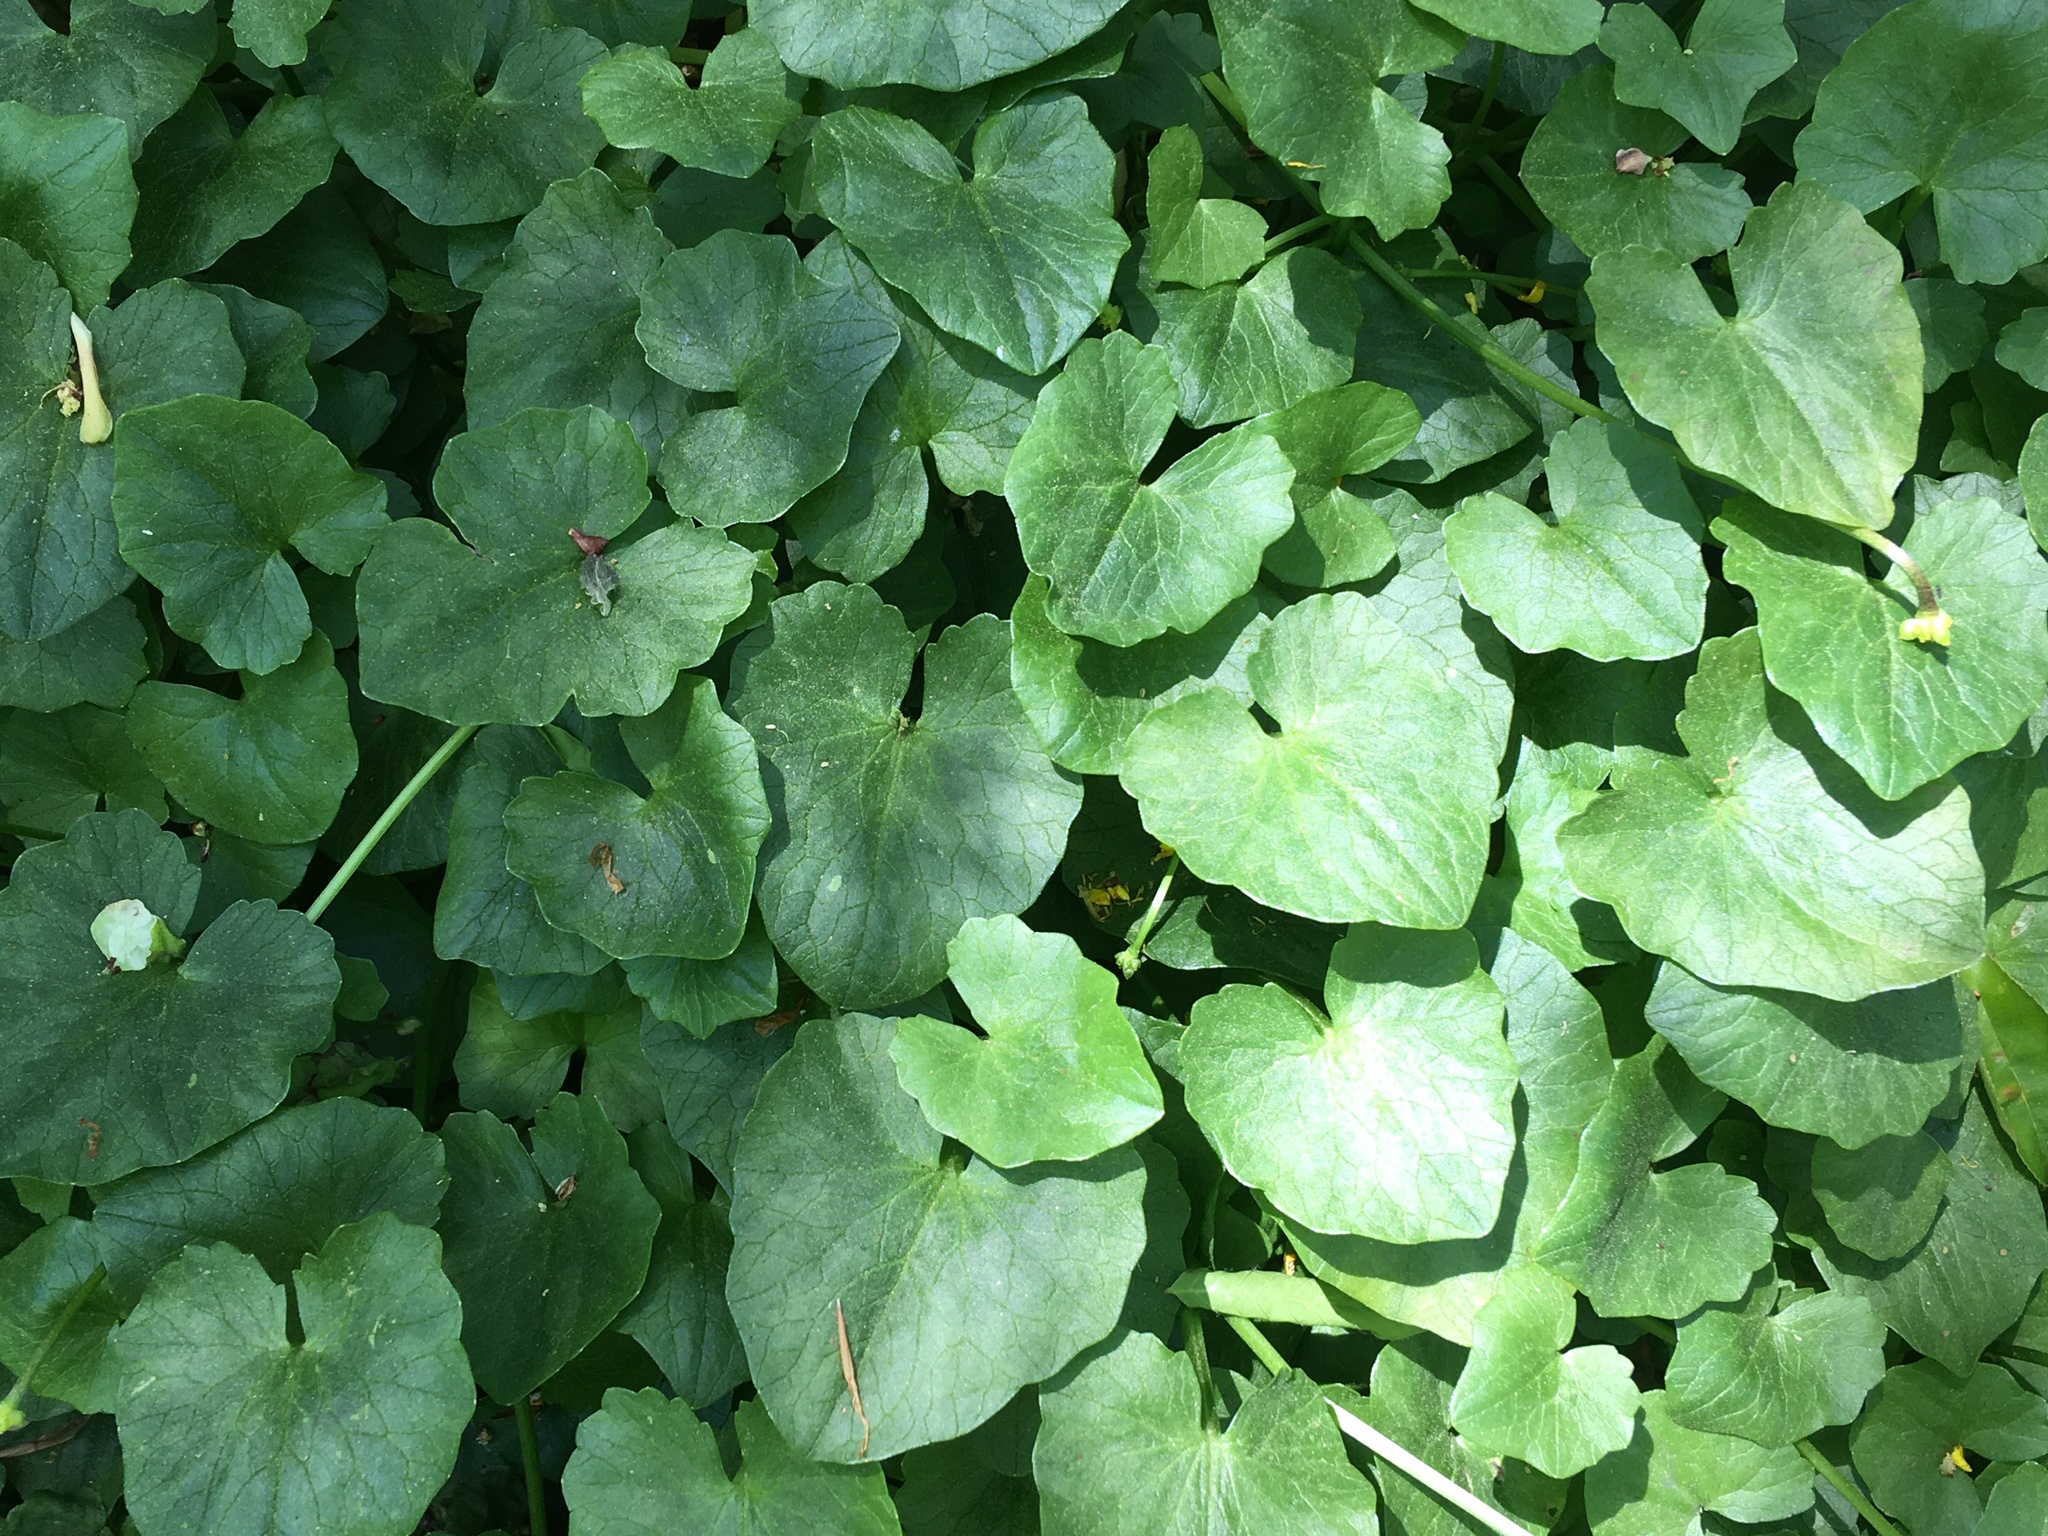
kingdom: Plantae
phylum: Tracheophyta
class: Magnoliopsida
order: Ranunculales
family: Ranunculaceae
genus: Ficaria
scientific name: Ficaria verna
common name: Lesser celandine
